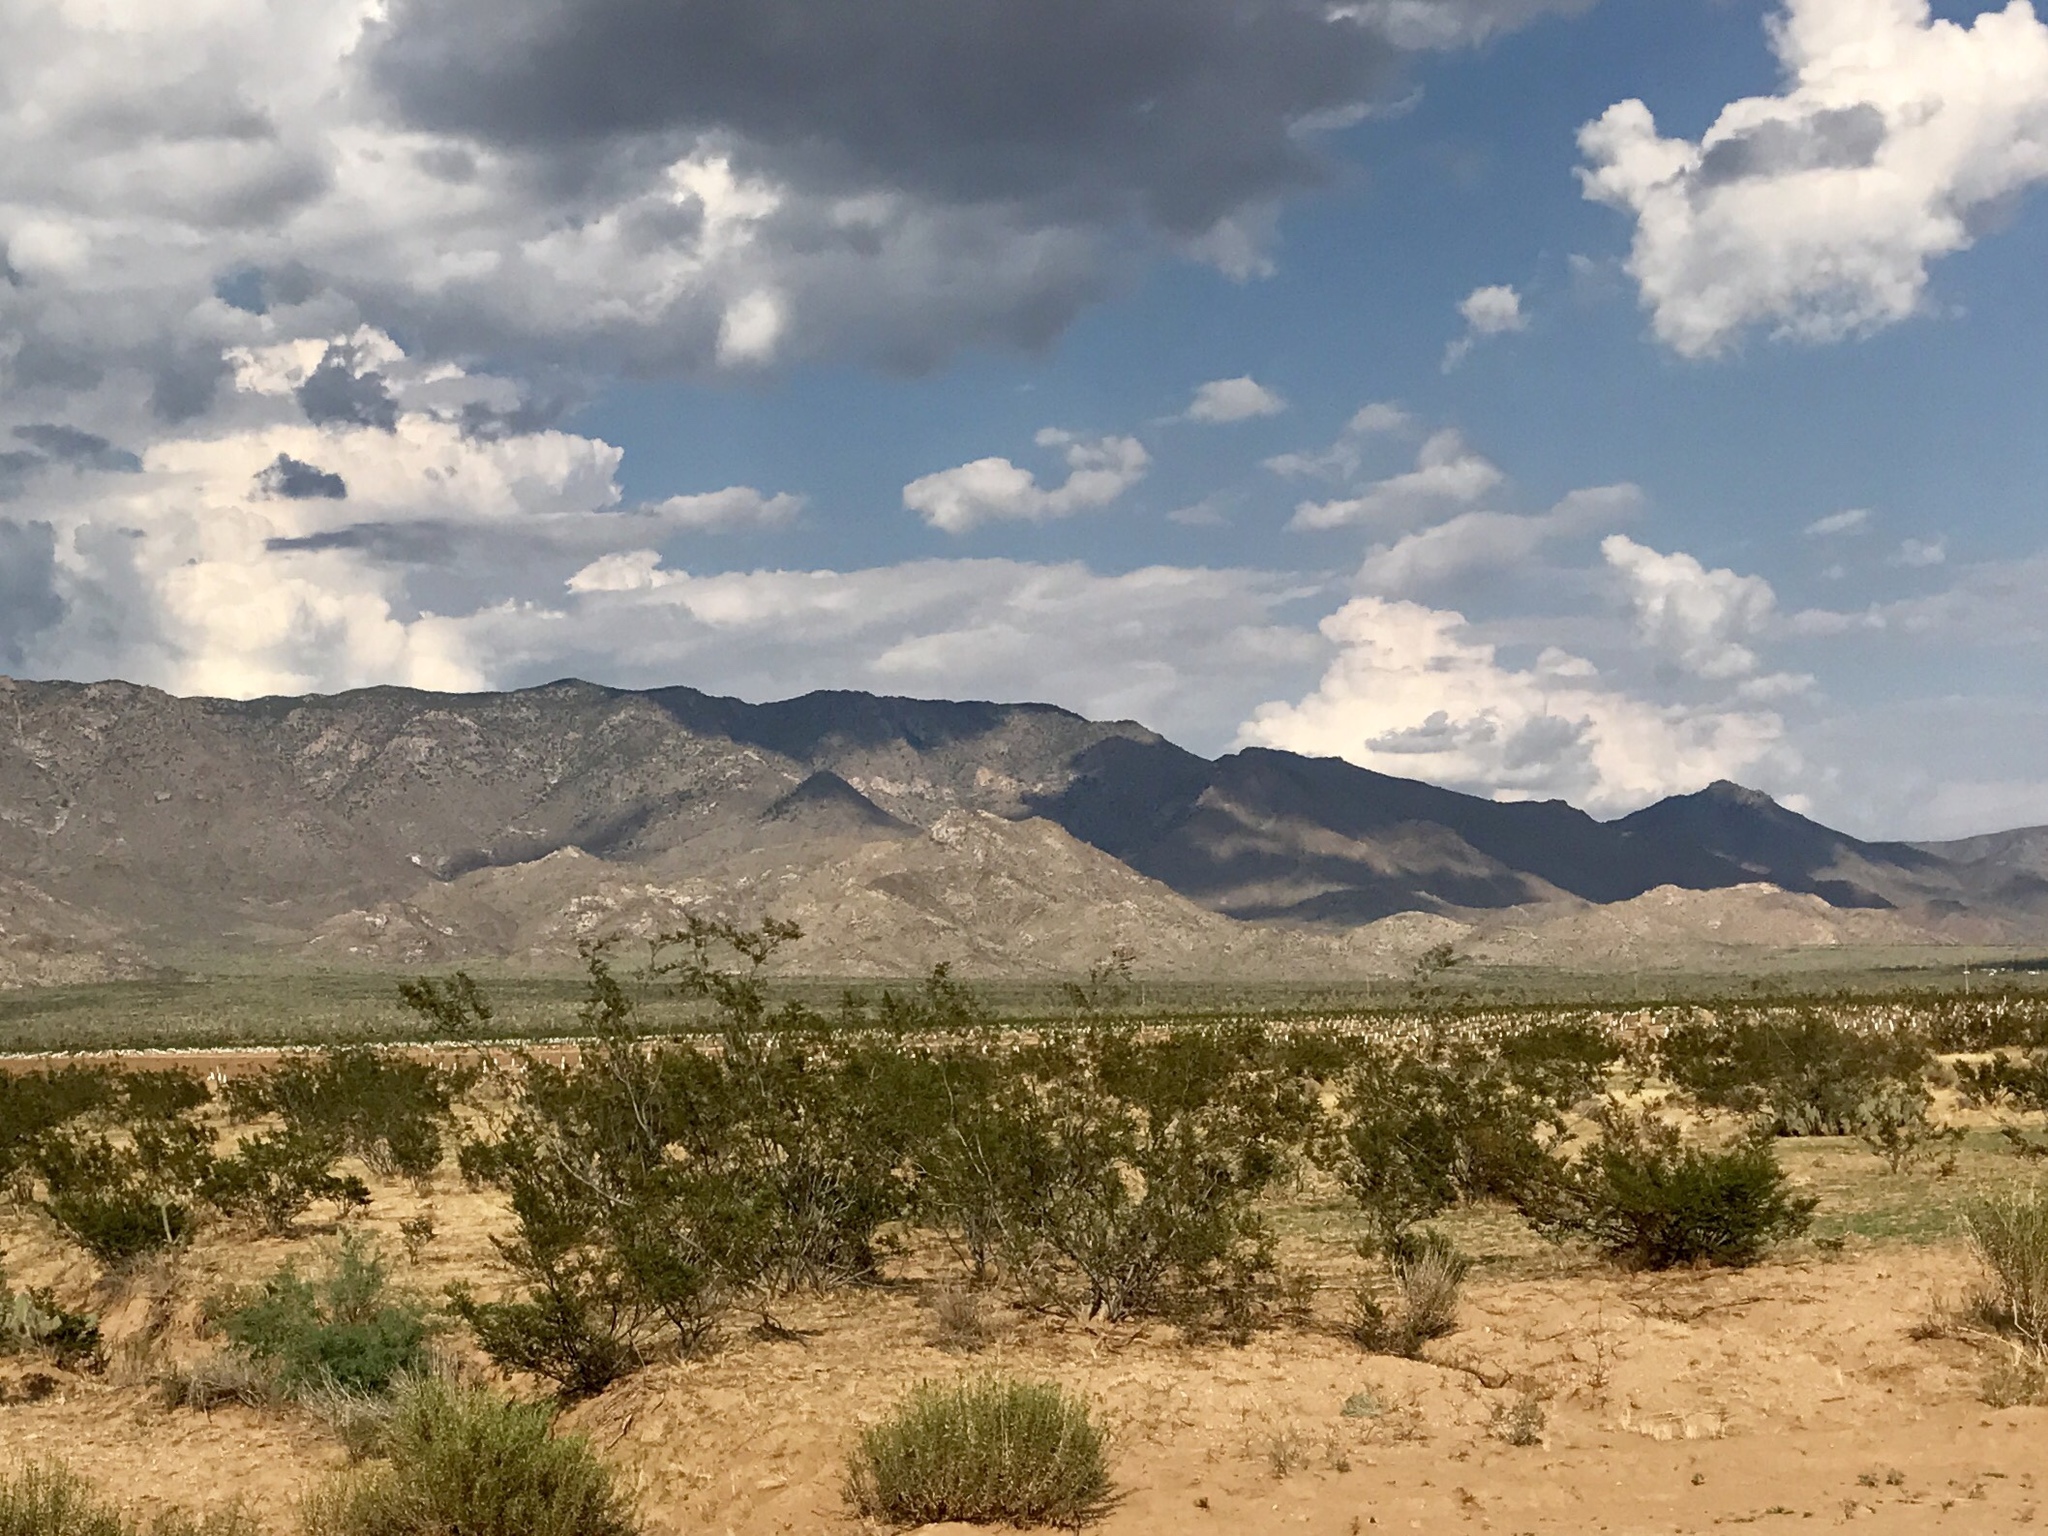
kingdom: Plantae
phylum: Tracheophyta
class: Magnoliopsida
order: Zygophyllales
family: Zygophyllaceae
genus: Larrea
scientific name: Larrea tridentata
